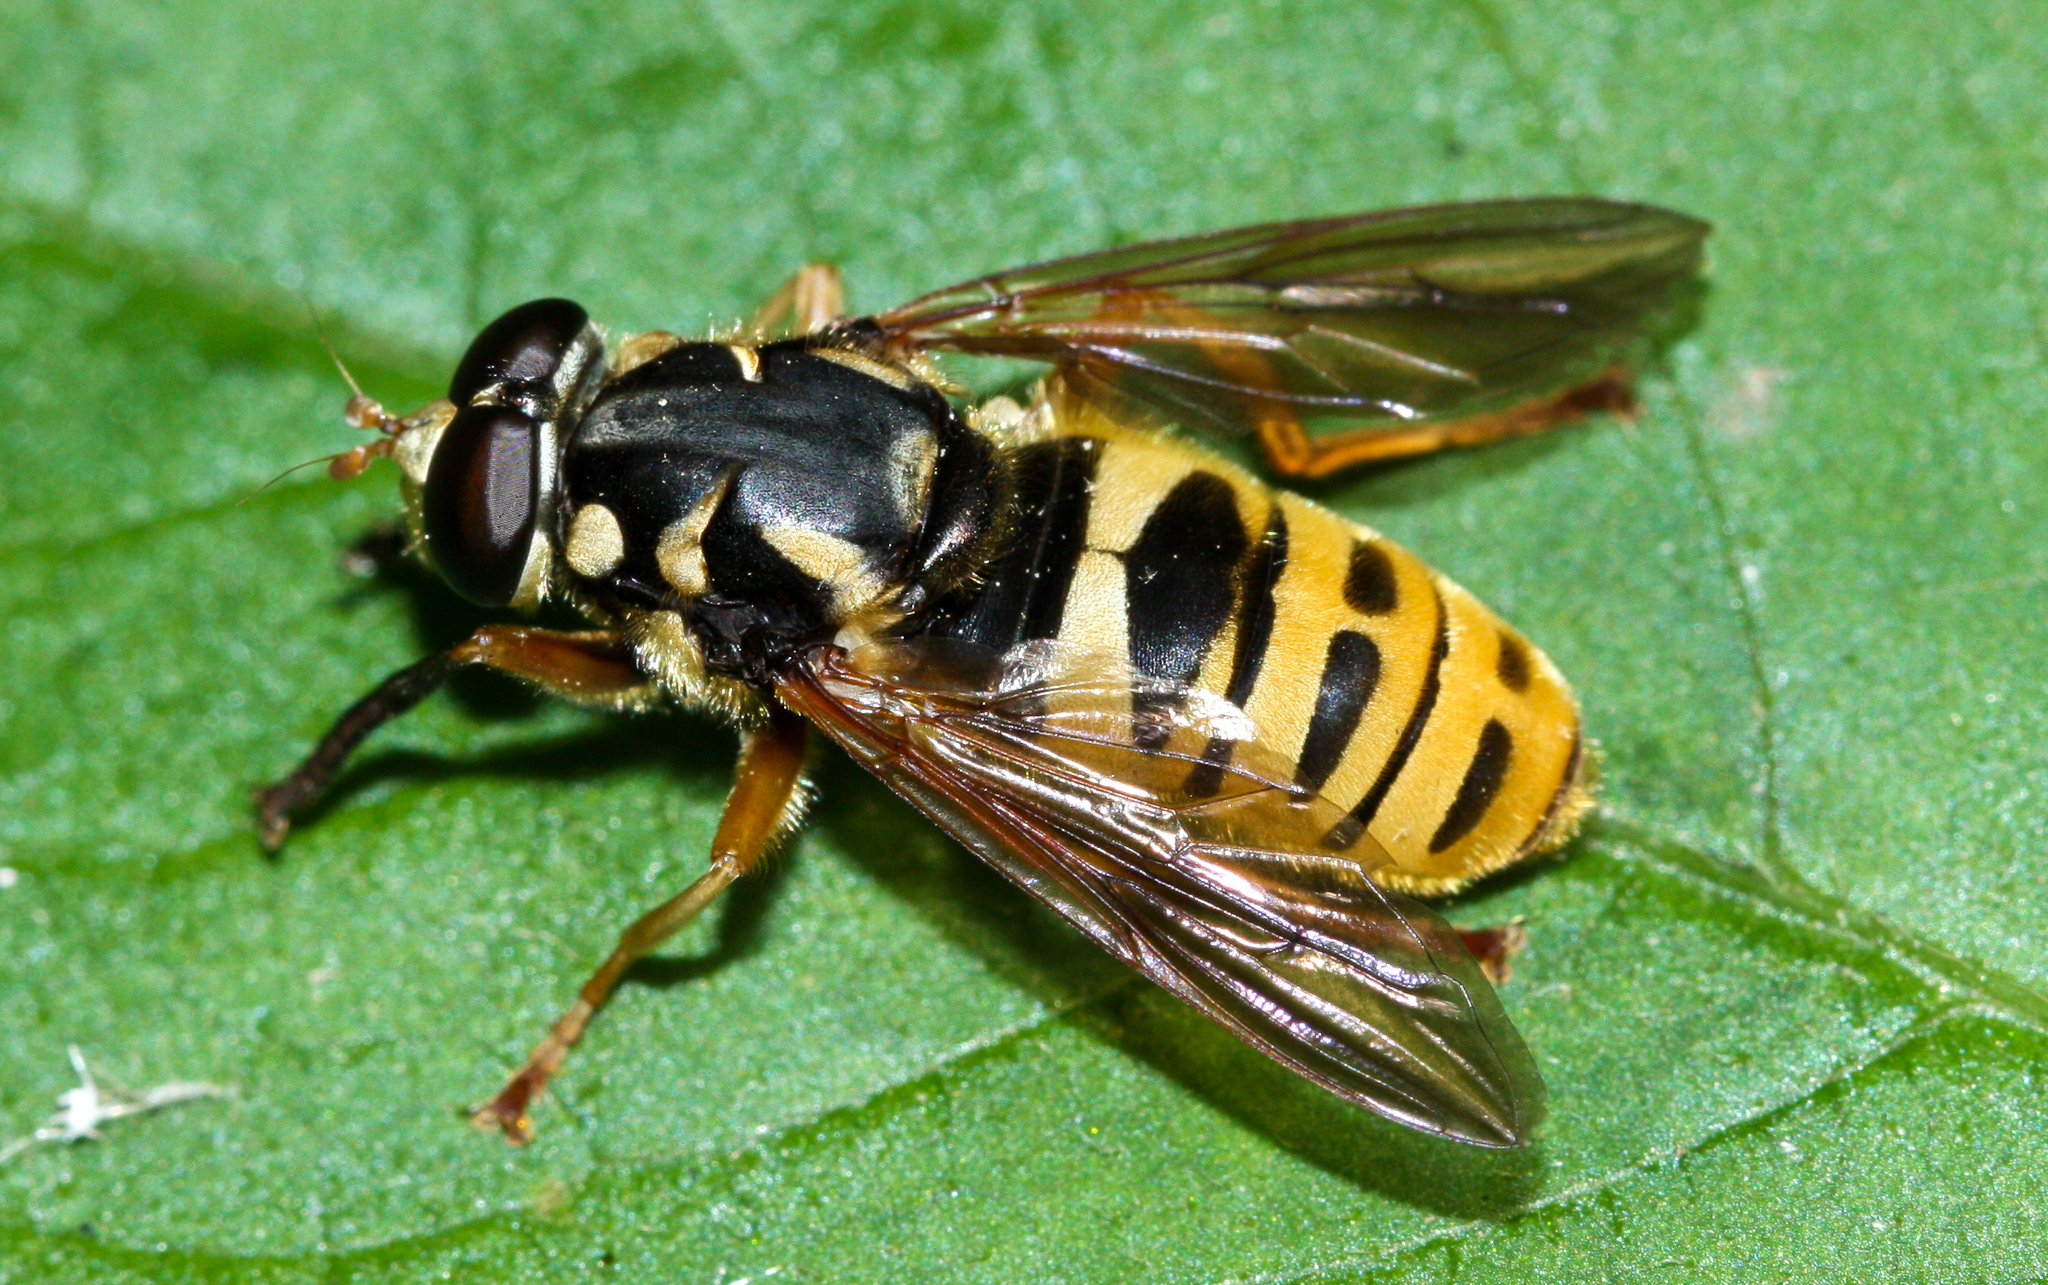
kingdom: Animalia
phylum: Arthropoda
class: Insecta
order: Diptera
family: Syrphidae
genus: Temnostoma
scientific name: Temnostoma excentricum
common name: Black-spotted falsehorn
